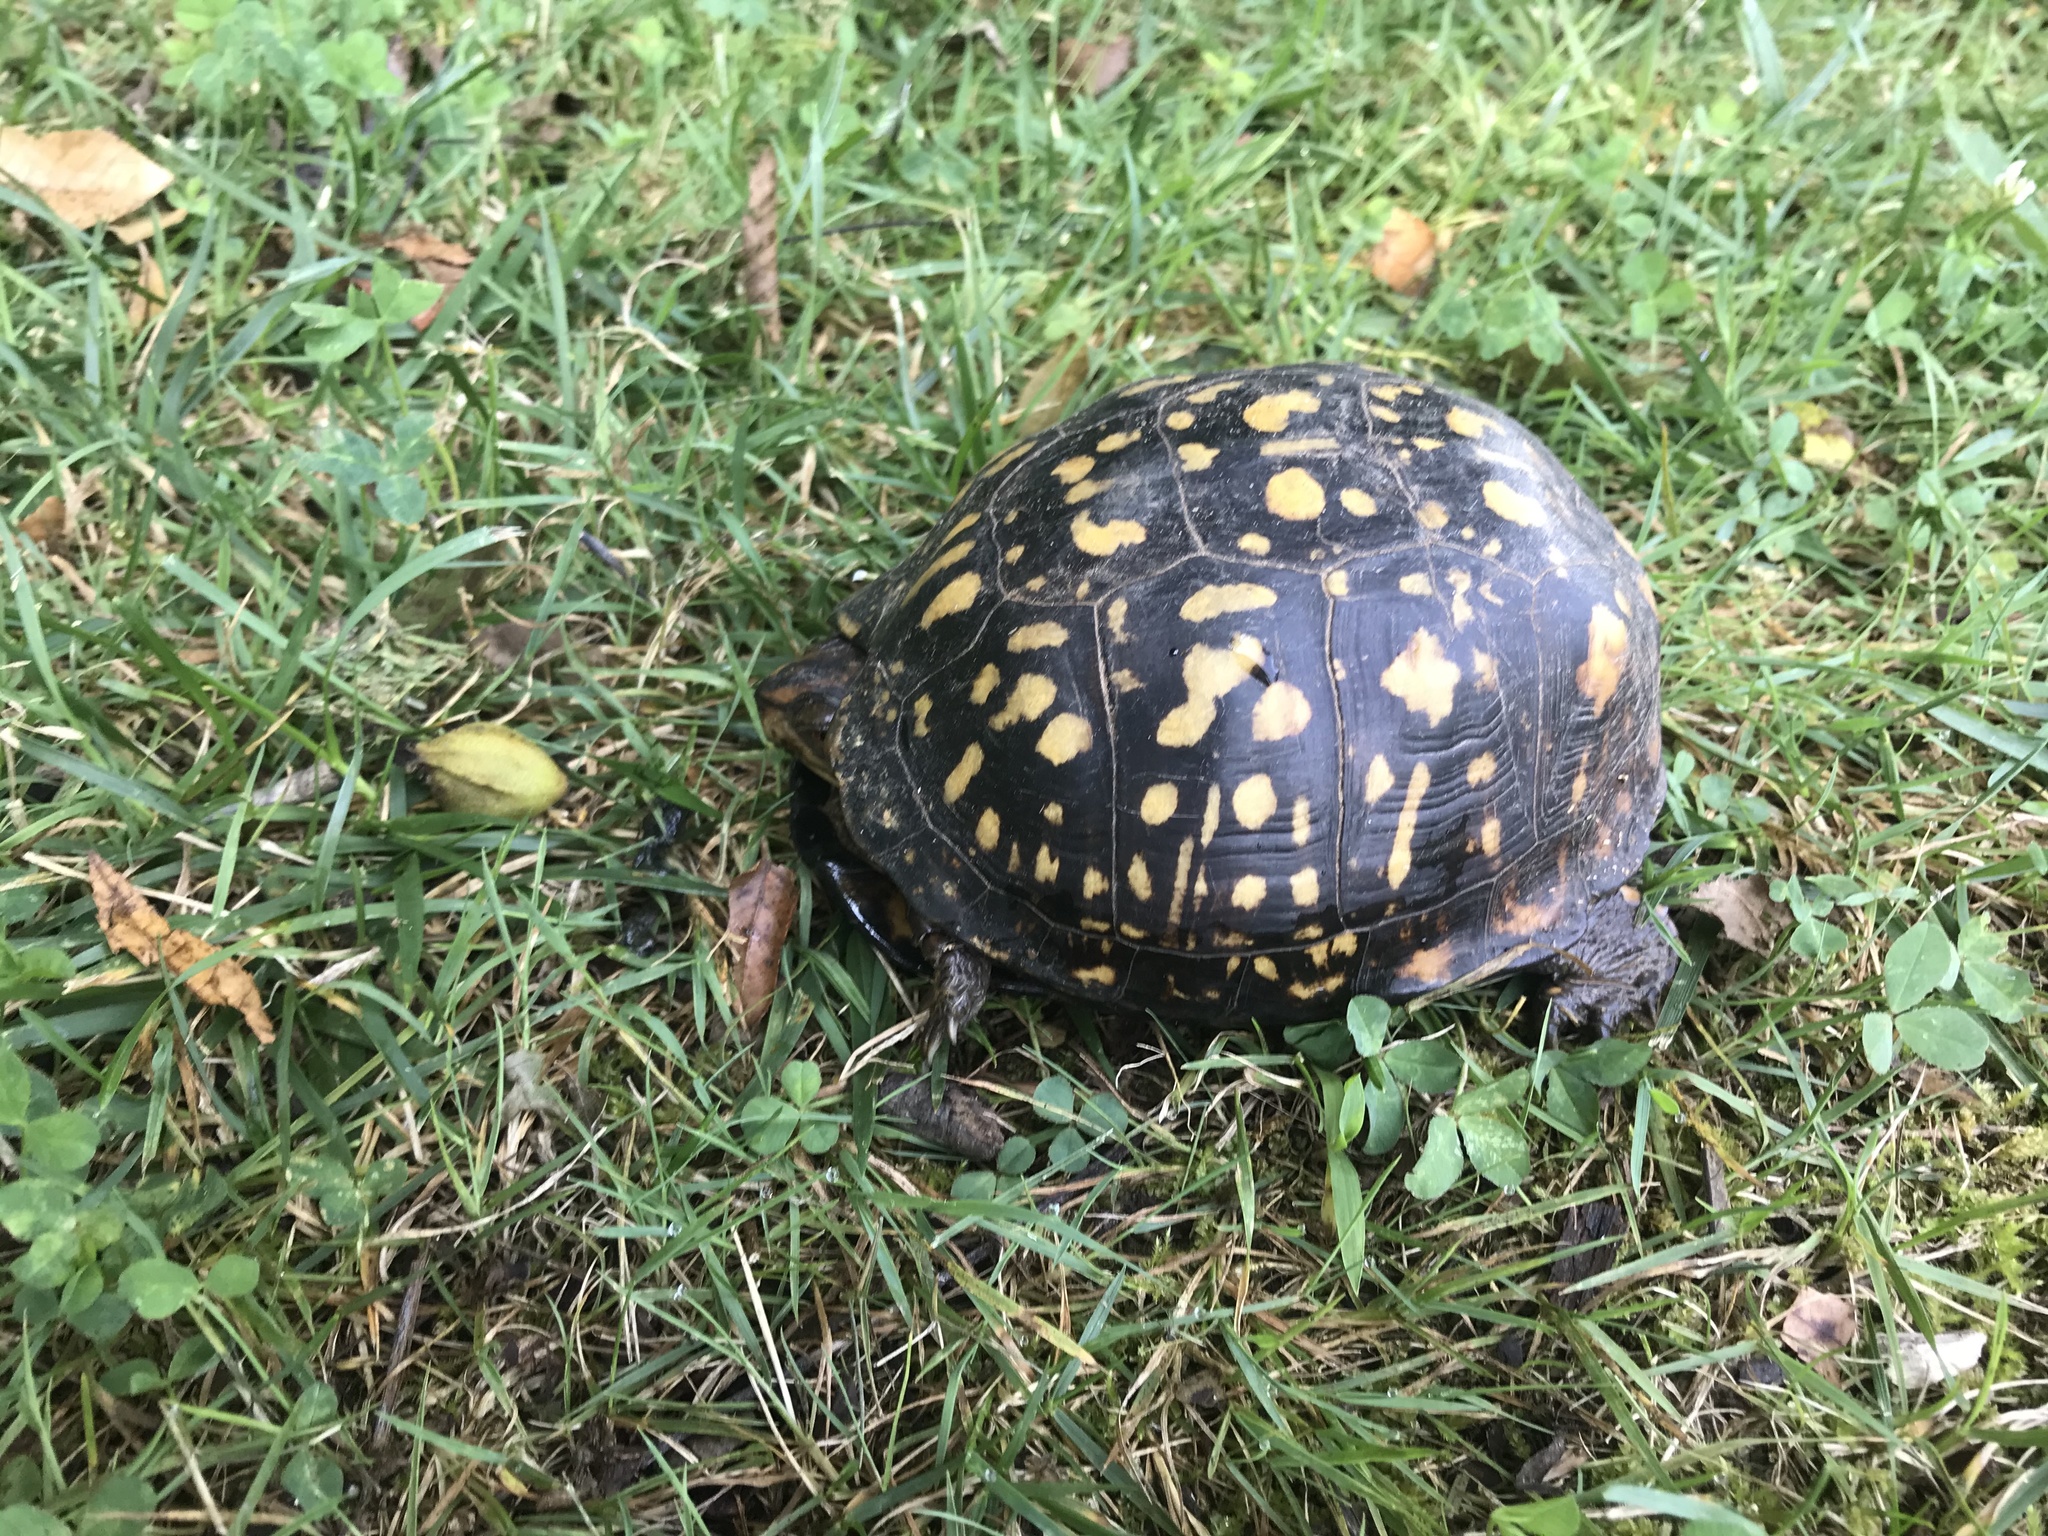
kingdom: Animalia
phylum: Chordata
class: Testudines
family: Emydidae
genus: Terrapene
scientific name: Terrapene carolina
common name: Common box turtle
